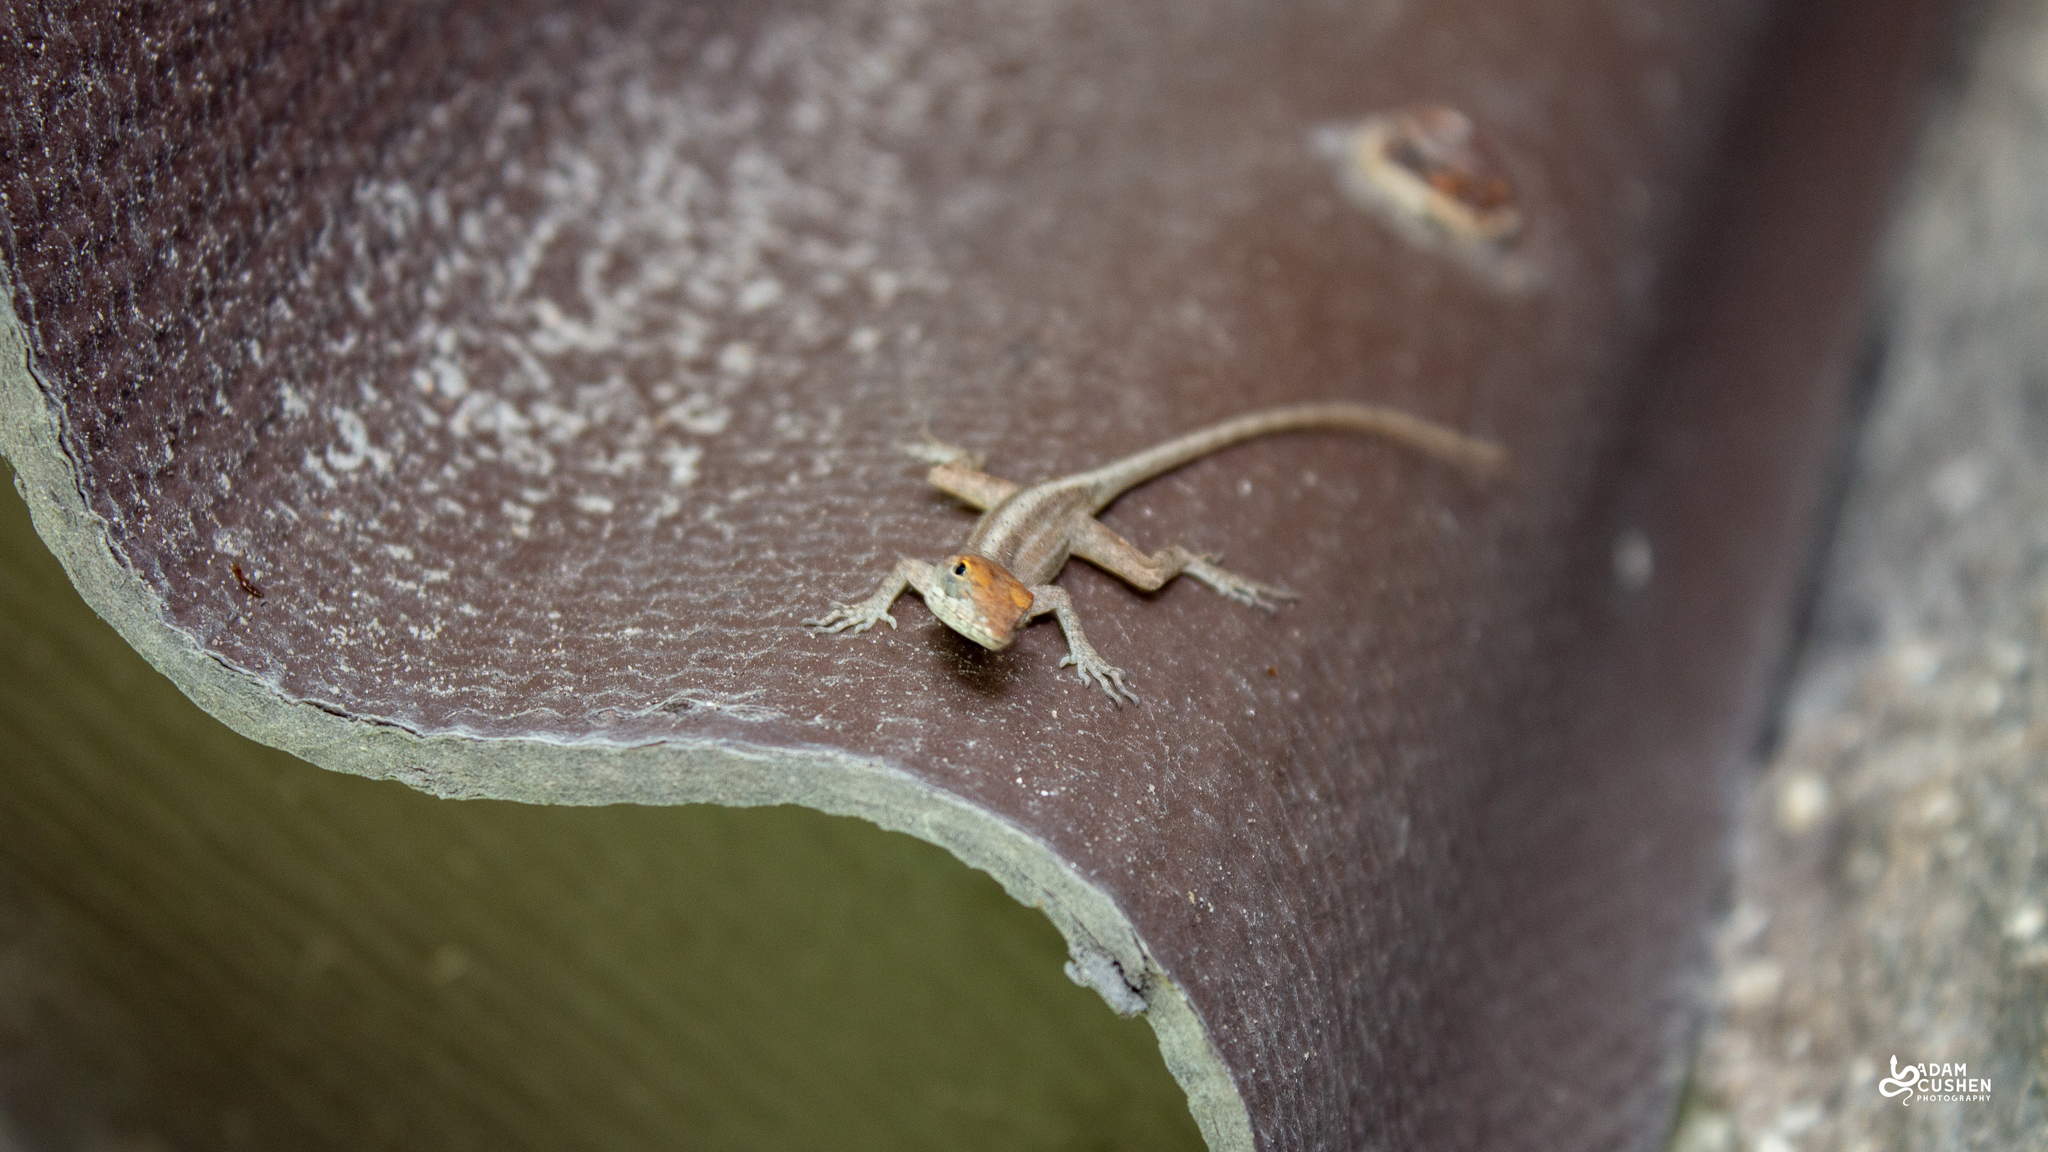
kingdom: Animalia
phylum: Chordata
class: Squamata
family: Dactyloidae
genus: Anolis
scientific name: Anolis sagrei
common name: Brown anole
